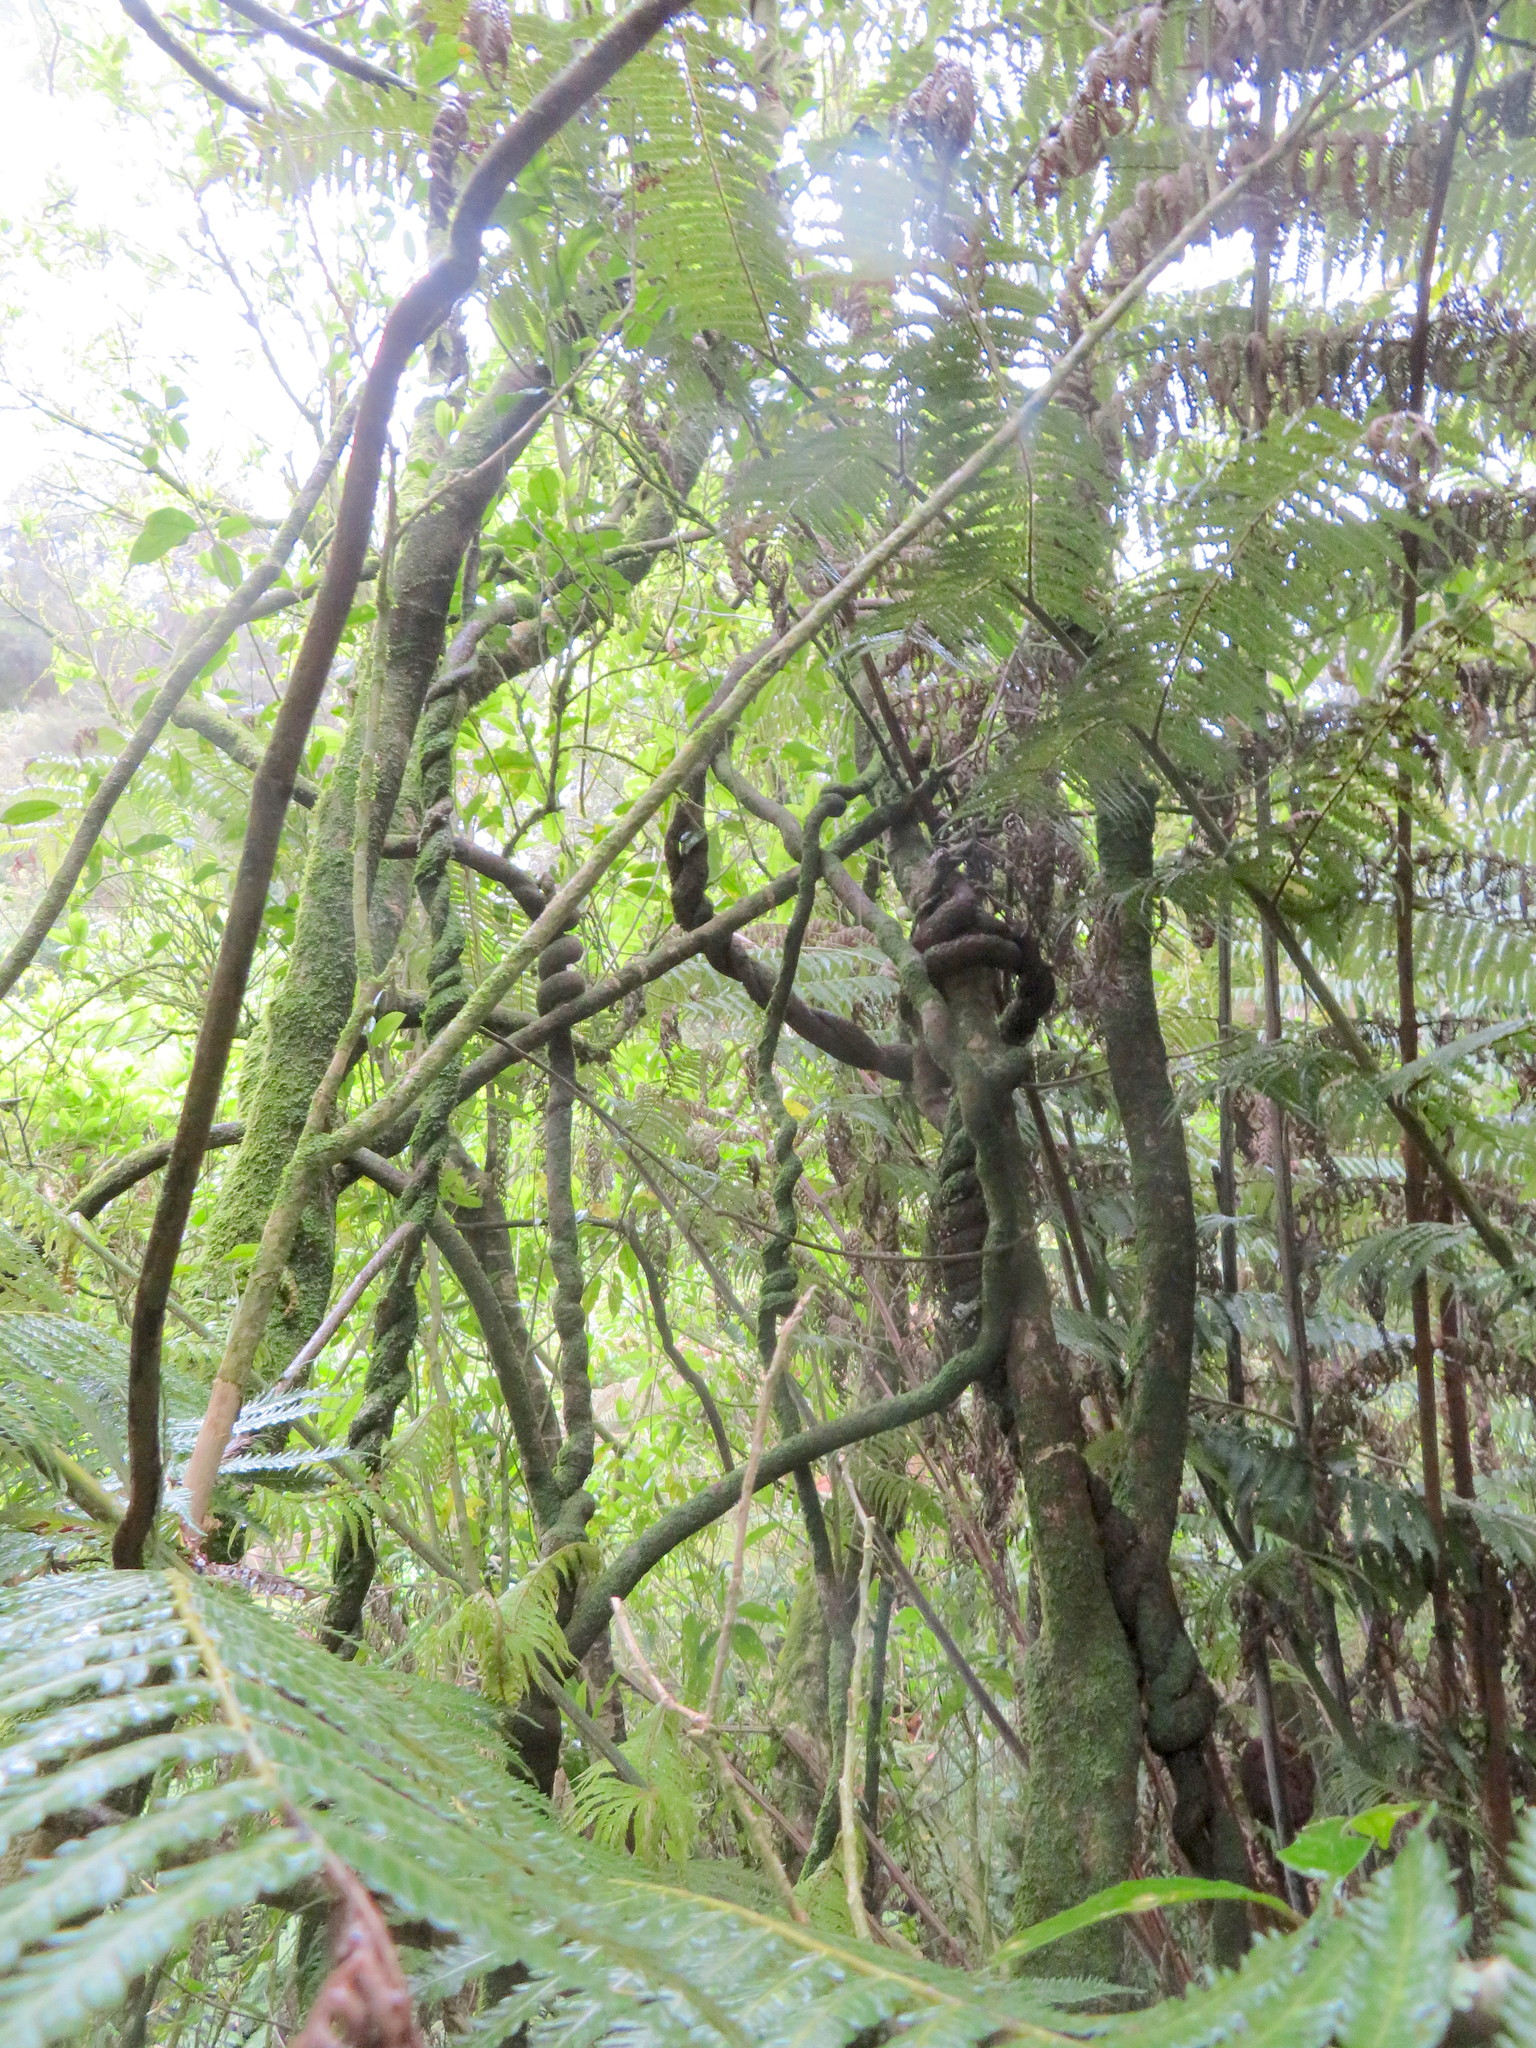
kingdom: Plantae
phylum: Tracheophyta
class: Magnoliopsida
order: Gentianales
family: Apocynaceae
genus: Parsonsia
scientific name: Parsonsia heterophylla
